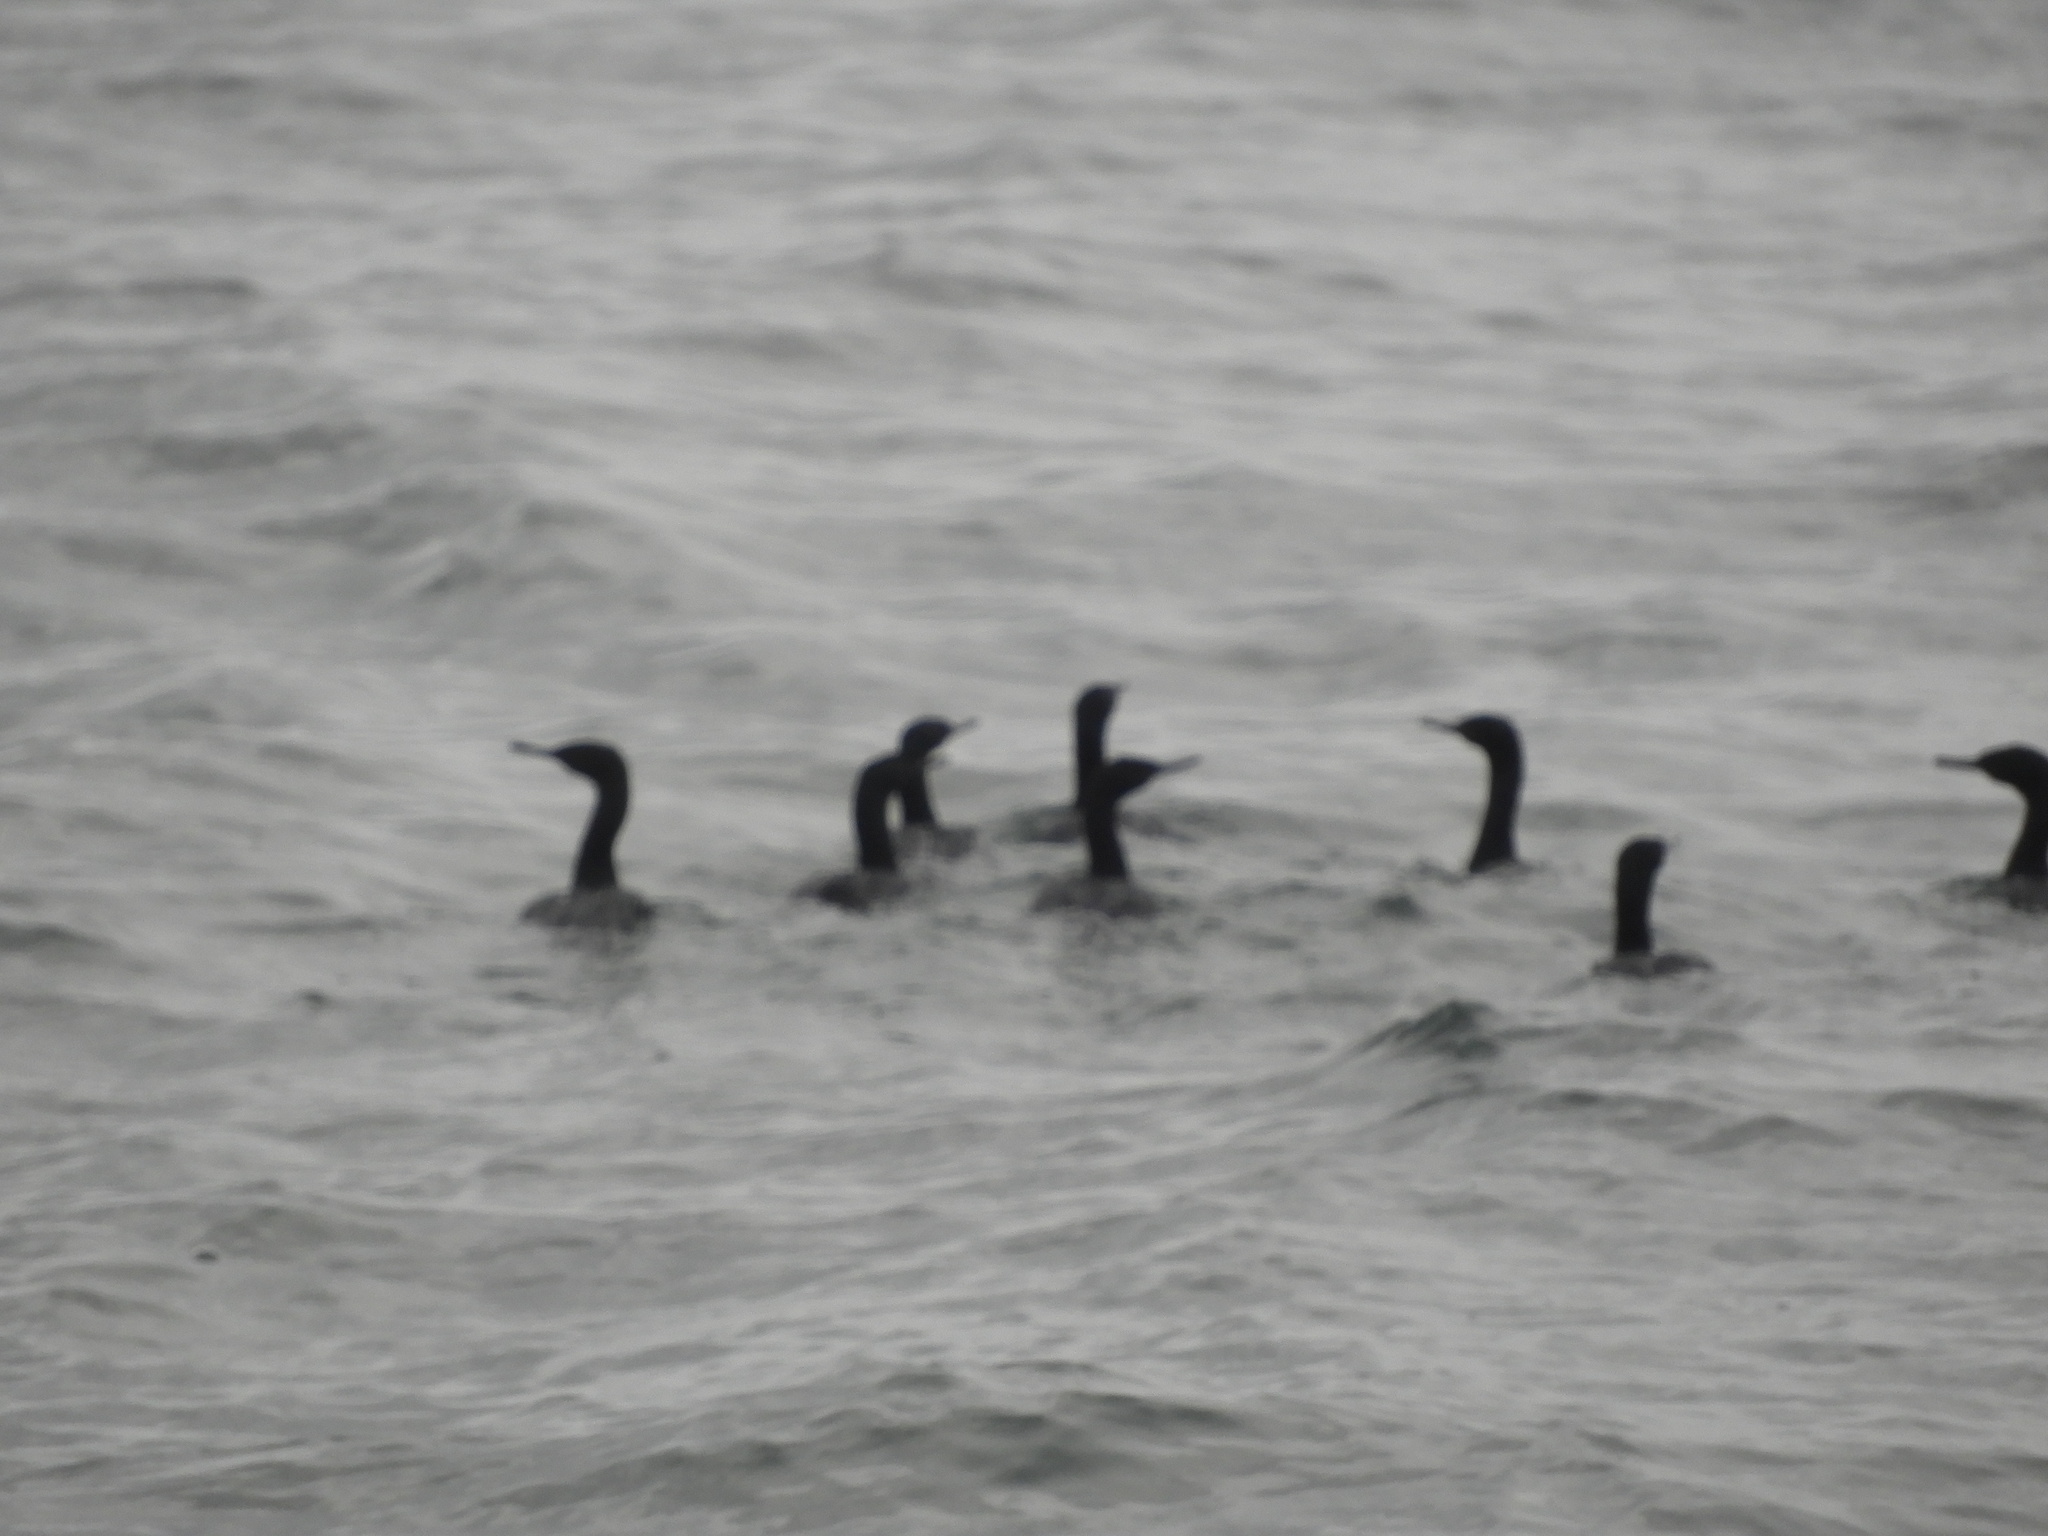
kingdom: Animalia
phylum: Chordata
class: Aves
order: Suliformes
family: Phalacrocoracidae
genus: Phalacrocorax
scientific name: Phalacrocorax pelagicus
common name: Pelagic cormorant
